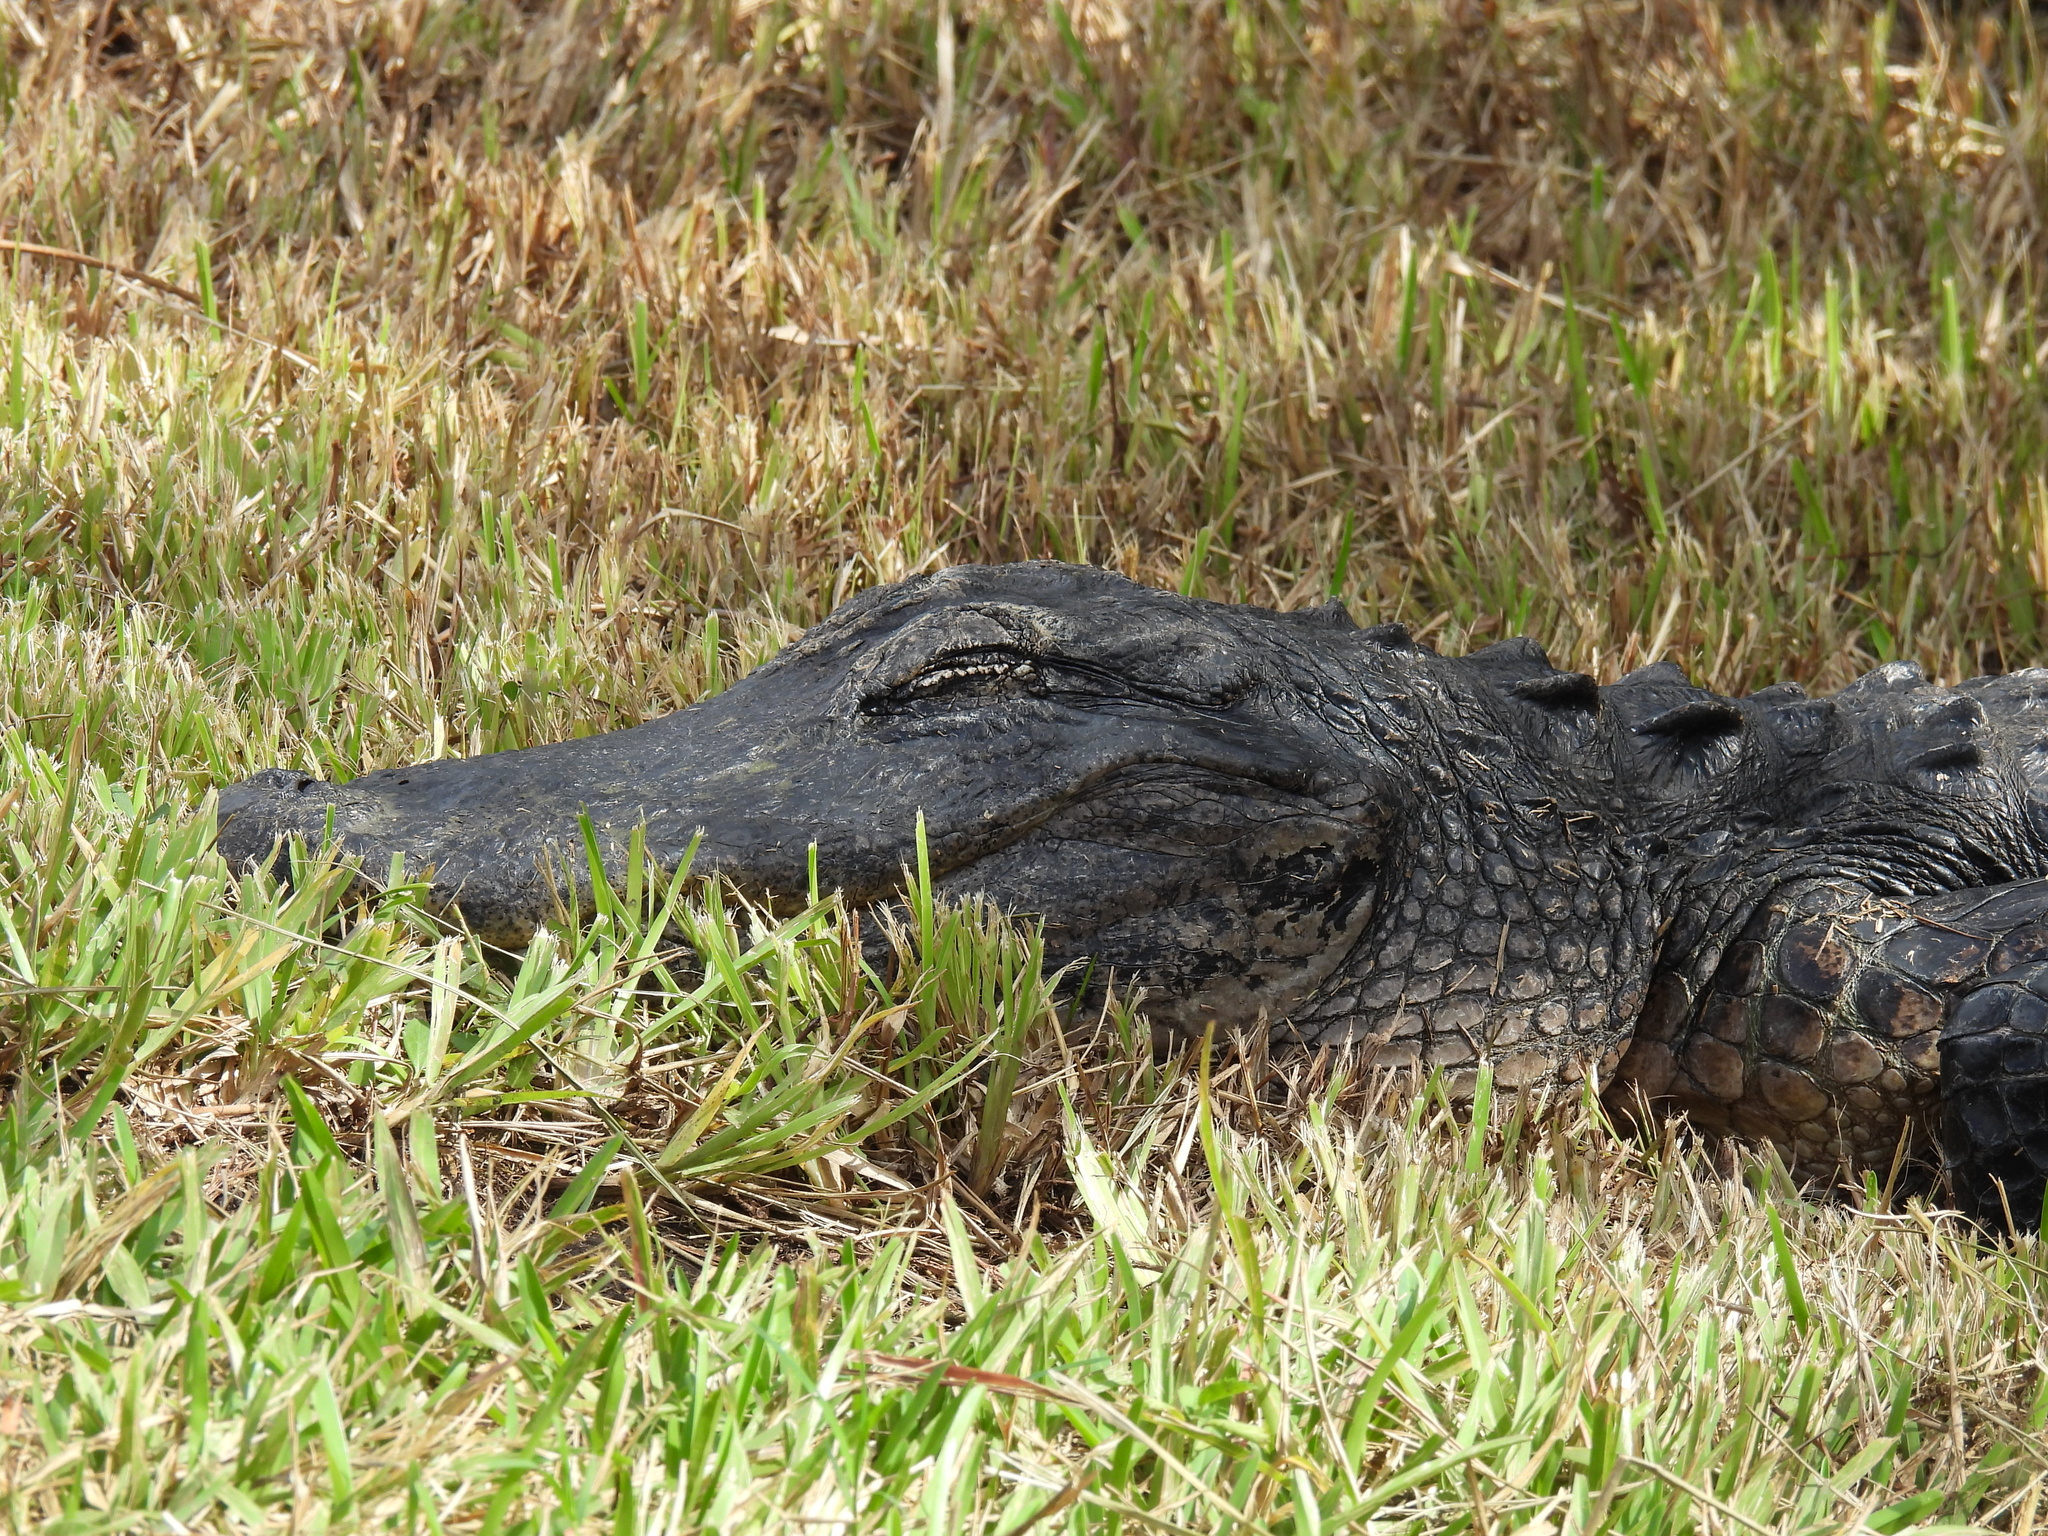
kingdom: Animalia
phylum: Chordata
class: Crocodylia
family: Alligatoridae
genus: Alligator
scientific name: Alligator mississippiensis
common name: American alligator
